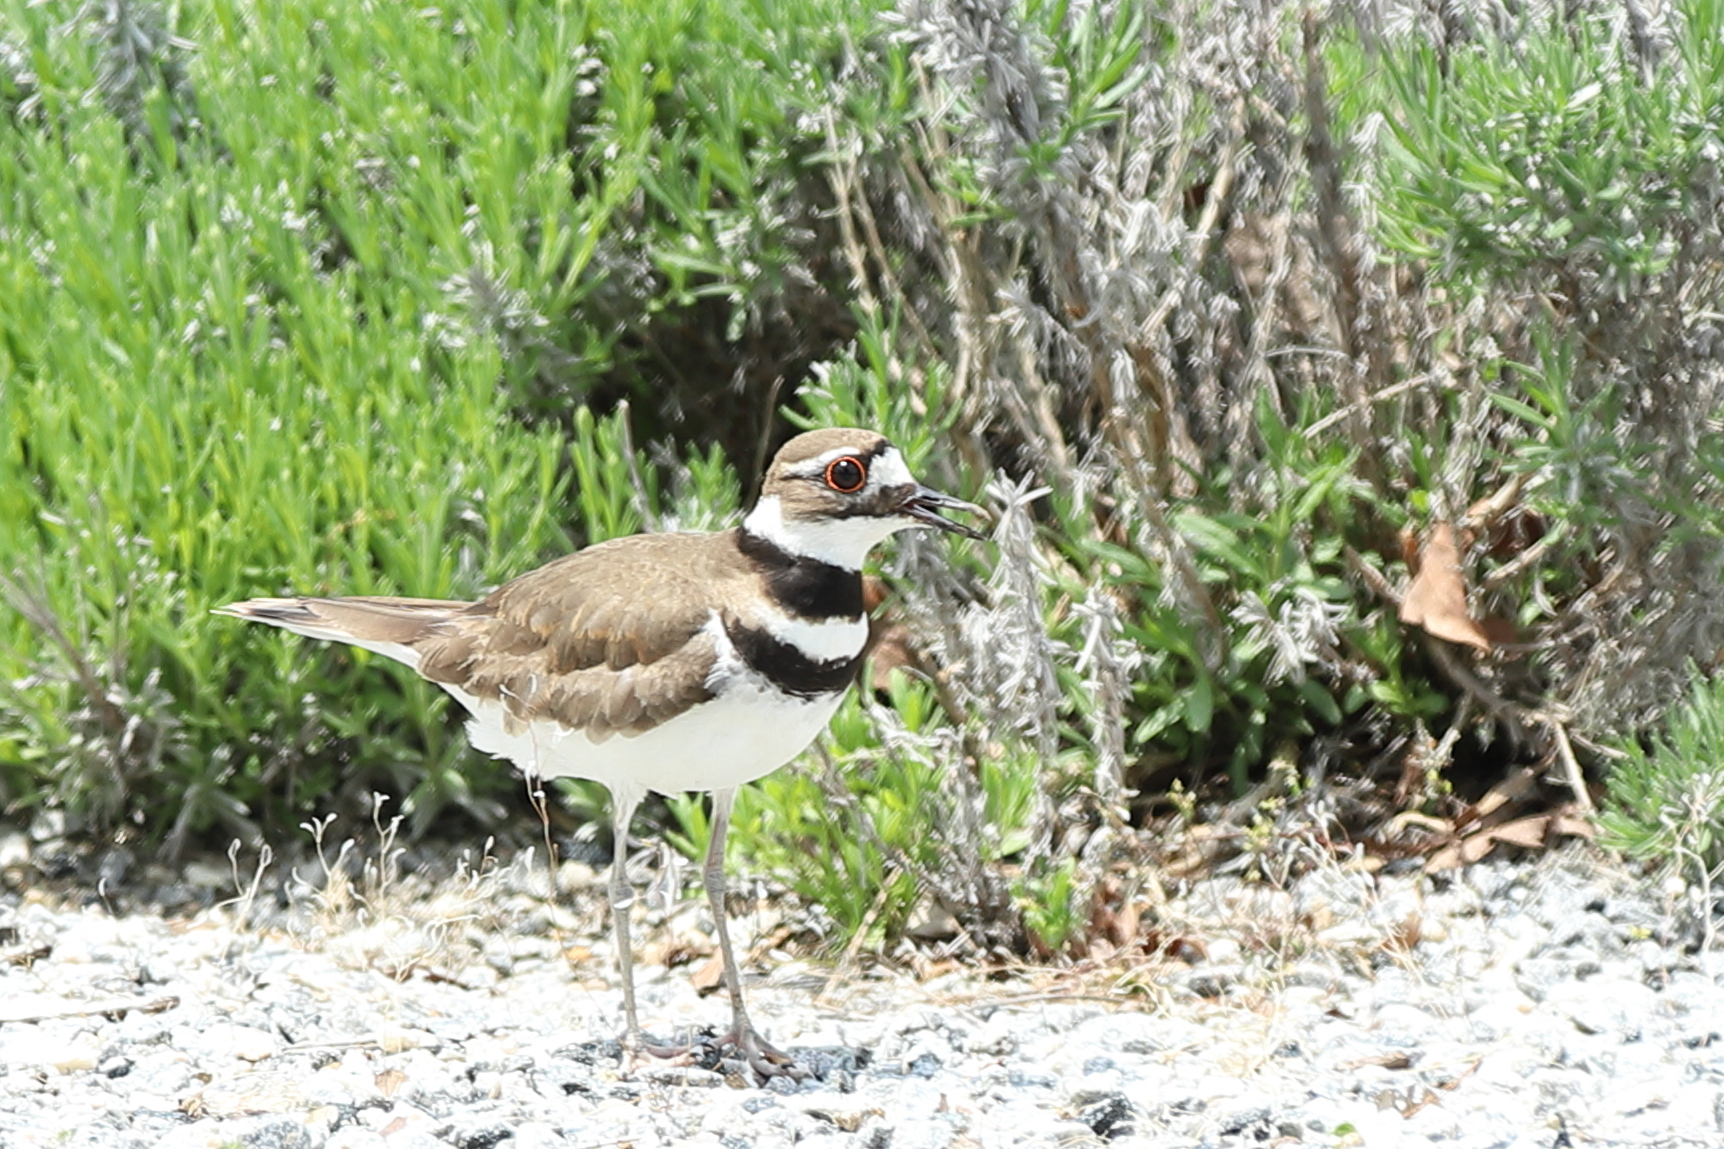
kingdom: Animalia
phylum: Chordata
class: Aves
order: Charadriiformes
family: Charadriidae
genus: Charadrius
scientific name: Charadrius vociferus
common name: Killdeer
